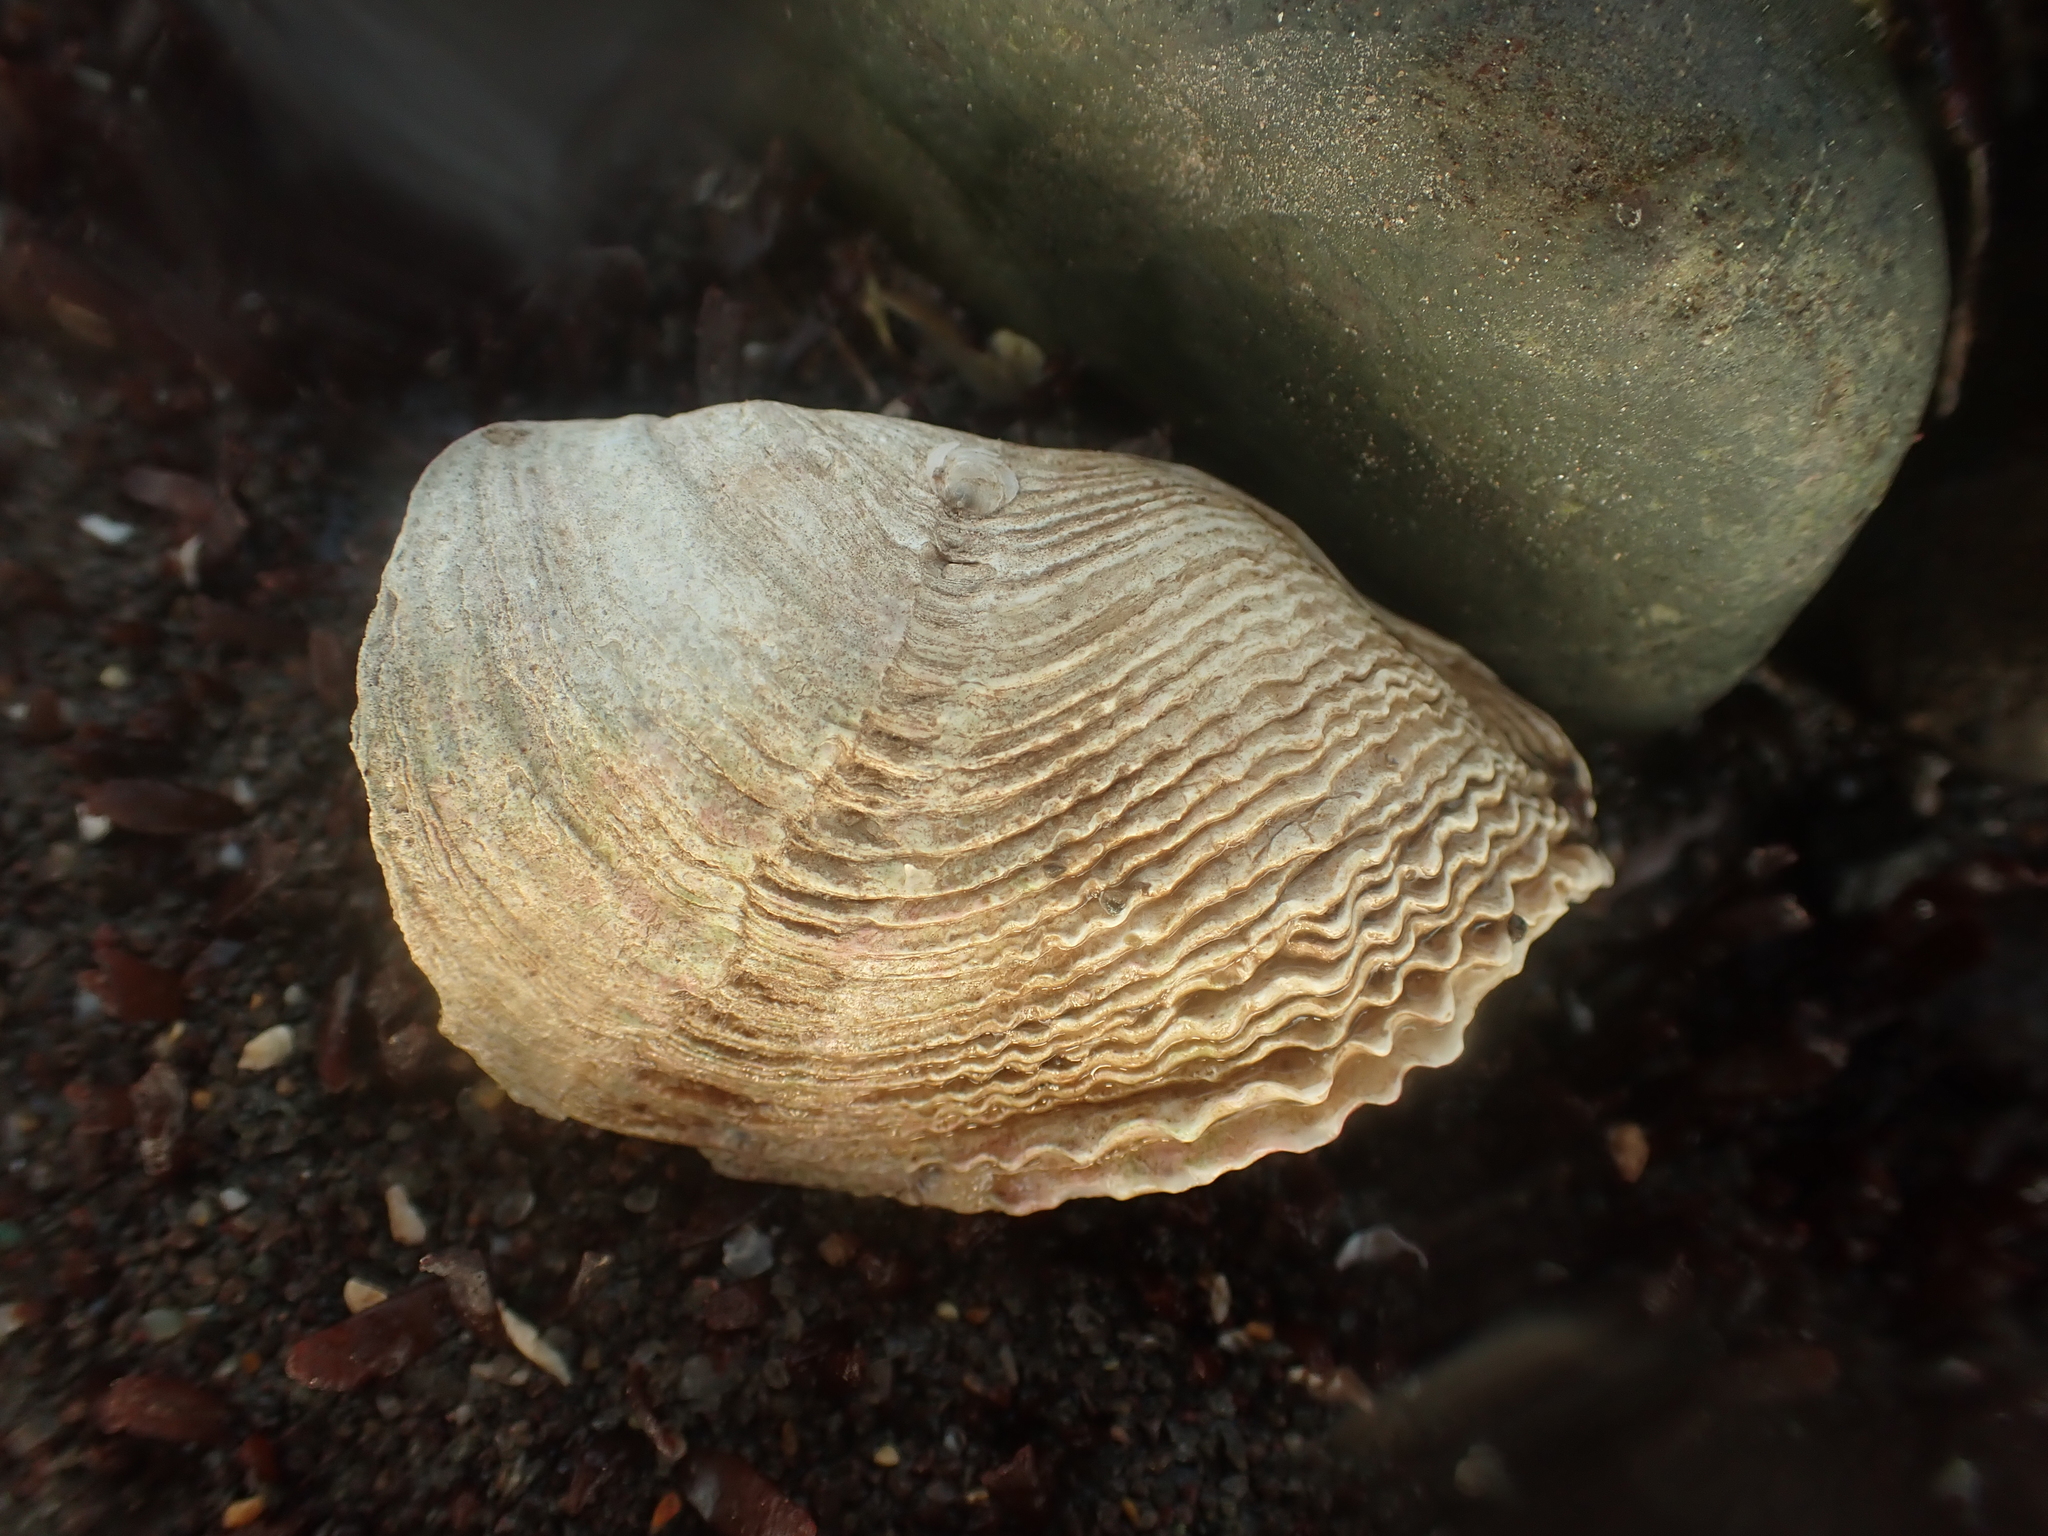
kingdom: Animalia
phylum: Mollusca
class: Bivalvia
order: Myida
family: Pholadidae
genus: Zirfaea
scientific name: Zirfaea crispata
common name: Oval piddock
